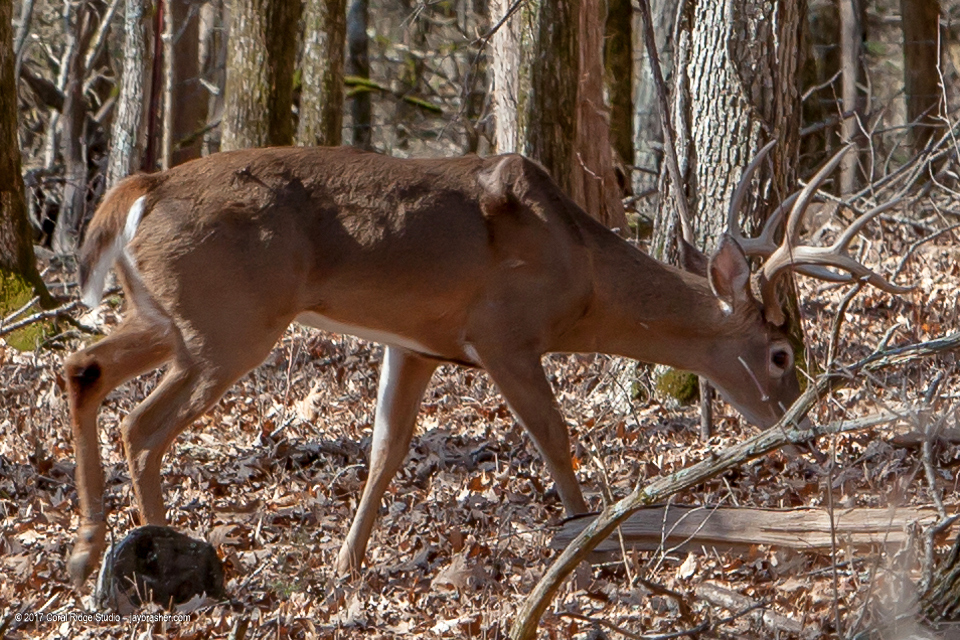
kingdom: Animalia
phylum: Chordata
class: Mammalia
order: Artiodactyla
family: Cervidae
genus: Odocoileus
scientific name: Odocoileus virginianus
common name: White-tailed deer
